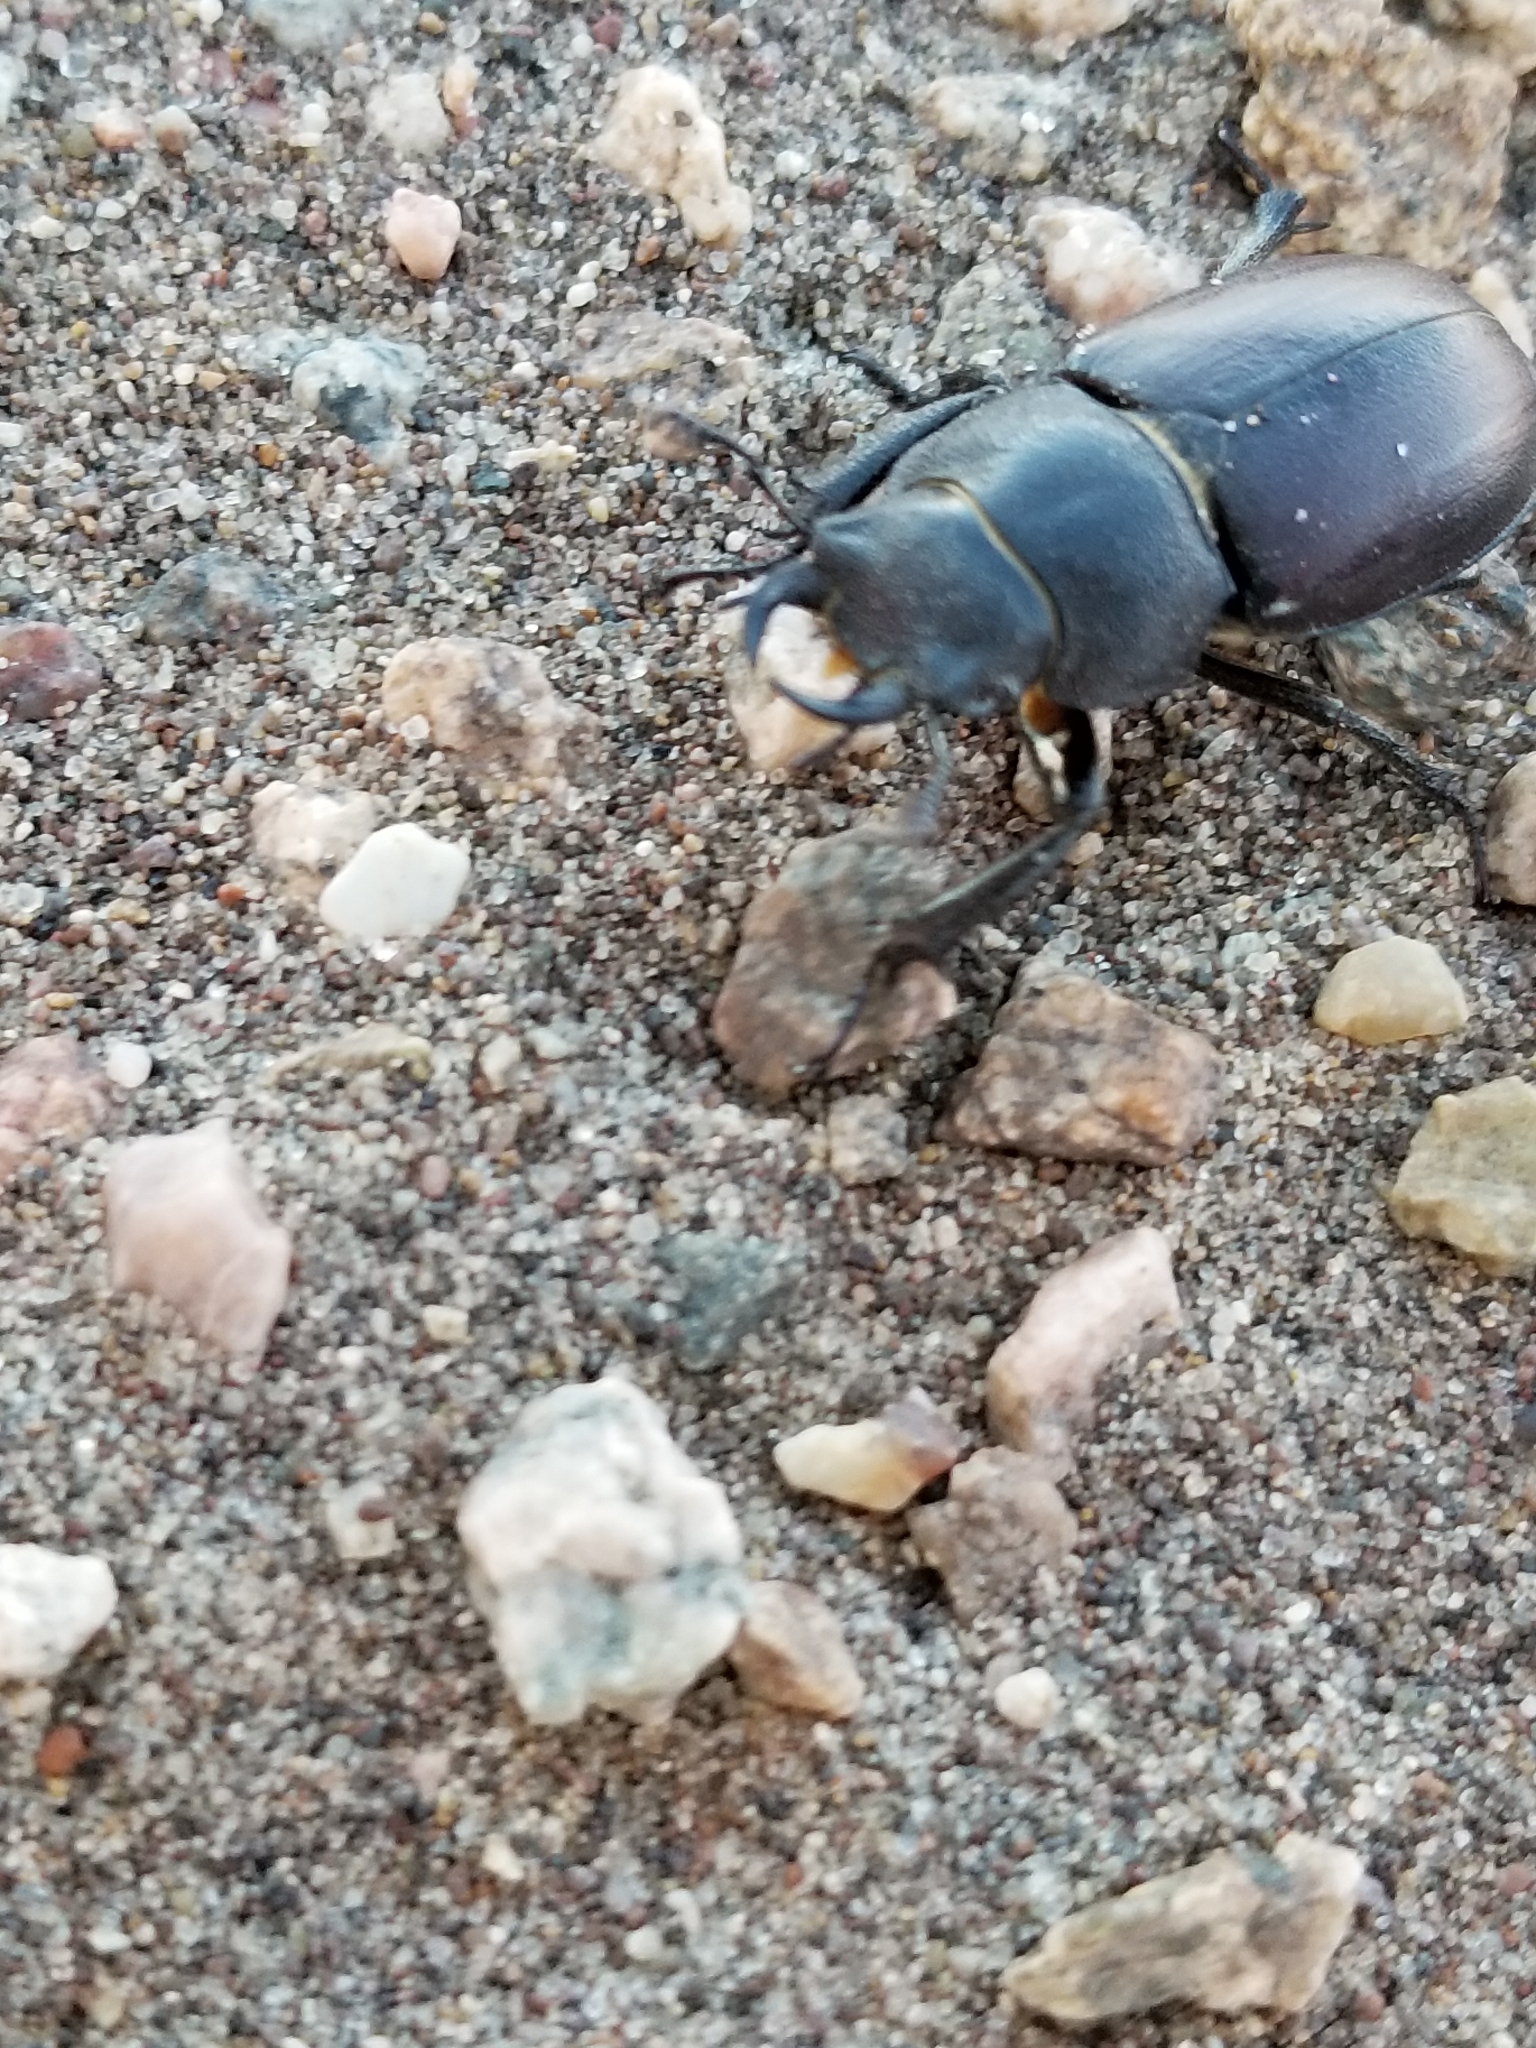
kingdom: Animalia
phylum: Arthropoda
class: Insecta
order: Coleoptera
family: Lucanidae
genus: Lucanus
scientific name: Lucanus mazama
